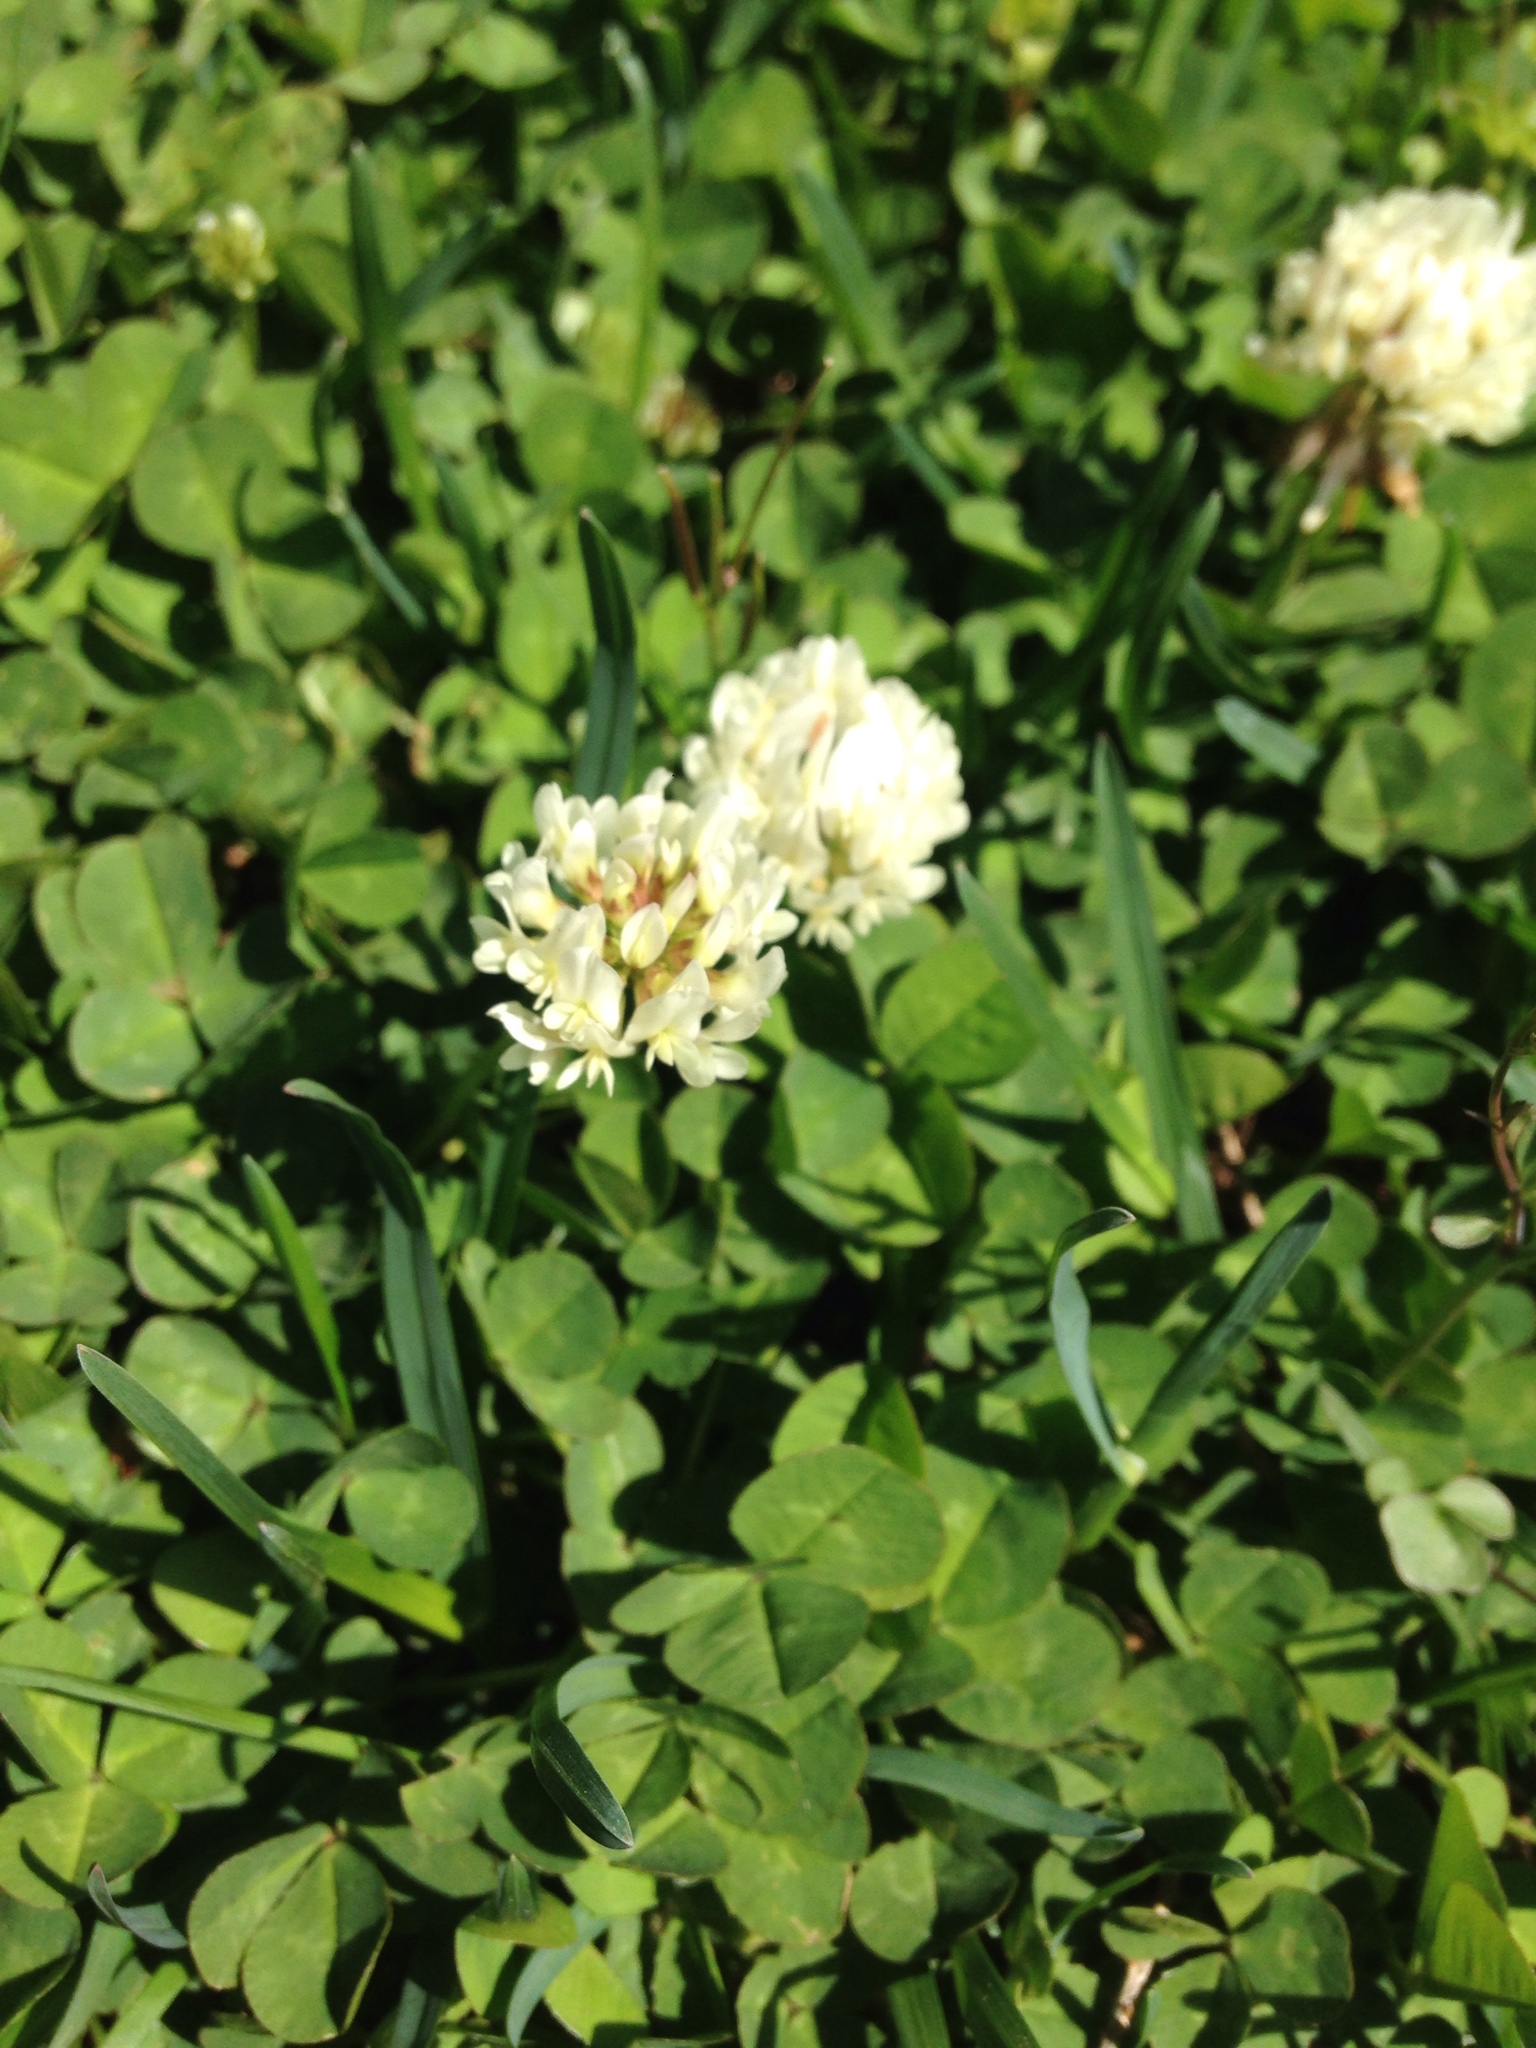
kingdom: Plantae
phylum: Tracheophyta
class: Magnoliopsida
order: Fabales
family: Fabaceae
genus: Trifolium
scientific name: Trifolium repens
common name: White clover
